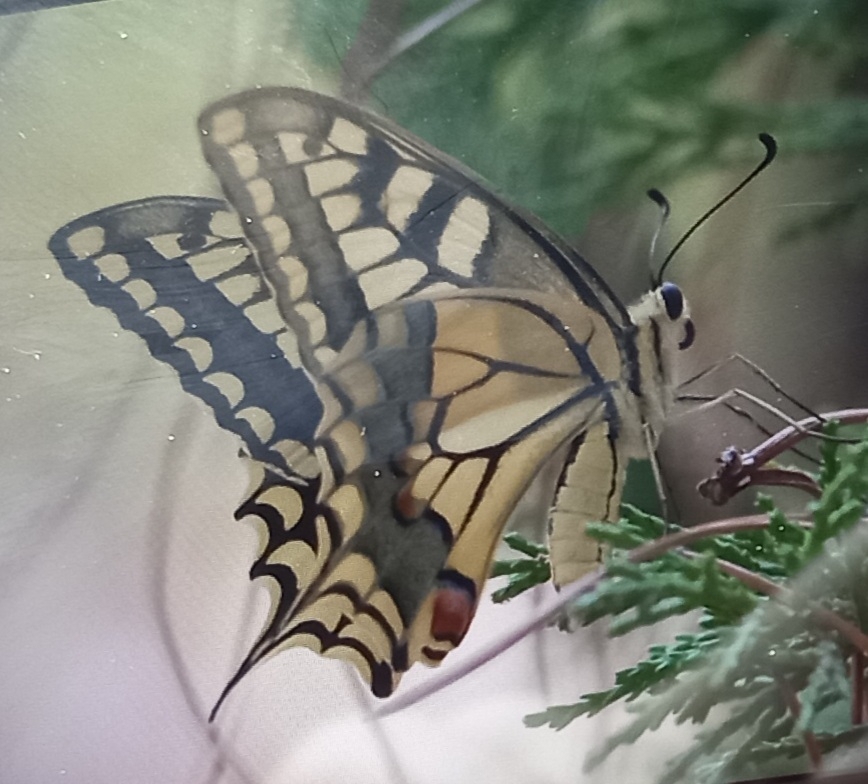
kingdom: Animalia
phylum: Arthropoda
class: Insecta
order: Lepidoptera
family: Papilionidae
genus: Papilio
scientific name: Papilio machaon
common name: Swallowtail
